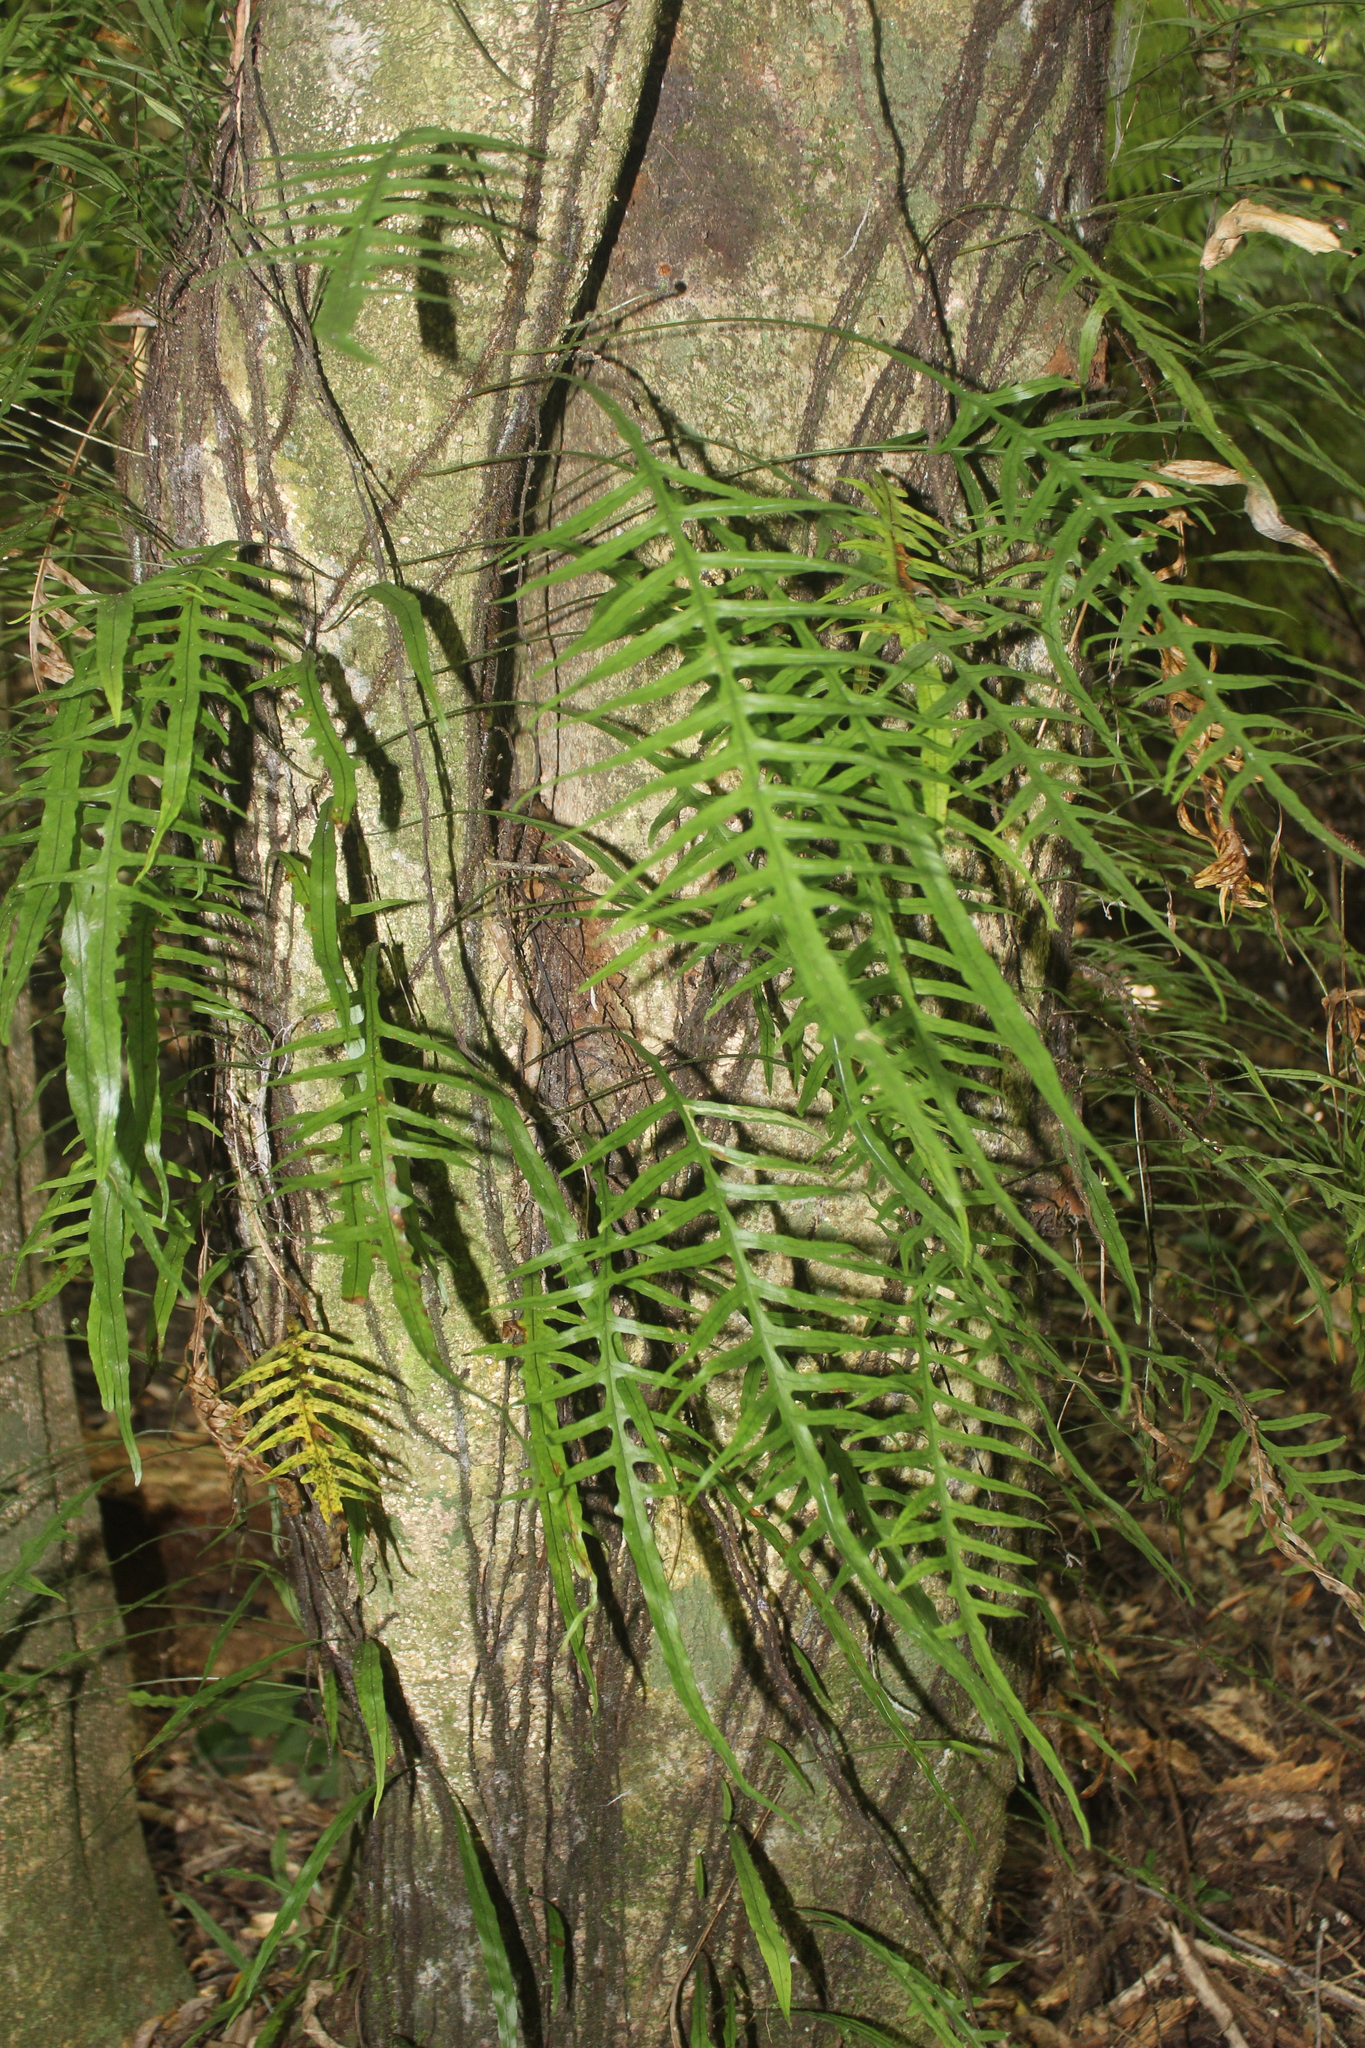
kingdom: Plantae
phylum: Tracheophyta
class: Polypodiopsida
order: Polypodiales
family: Polypodiaceae
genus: Lecanopteris
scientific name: Lecanopteris scandens
